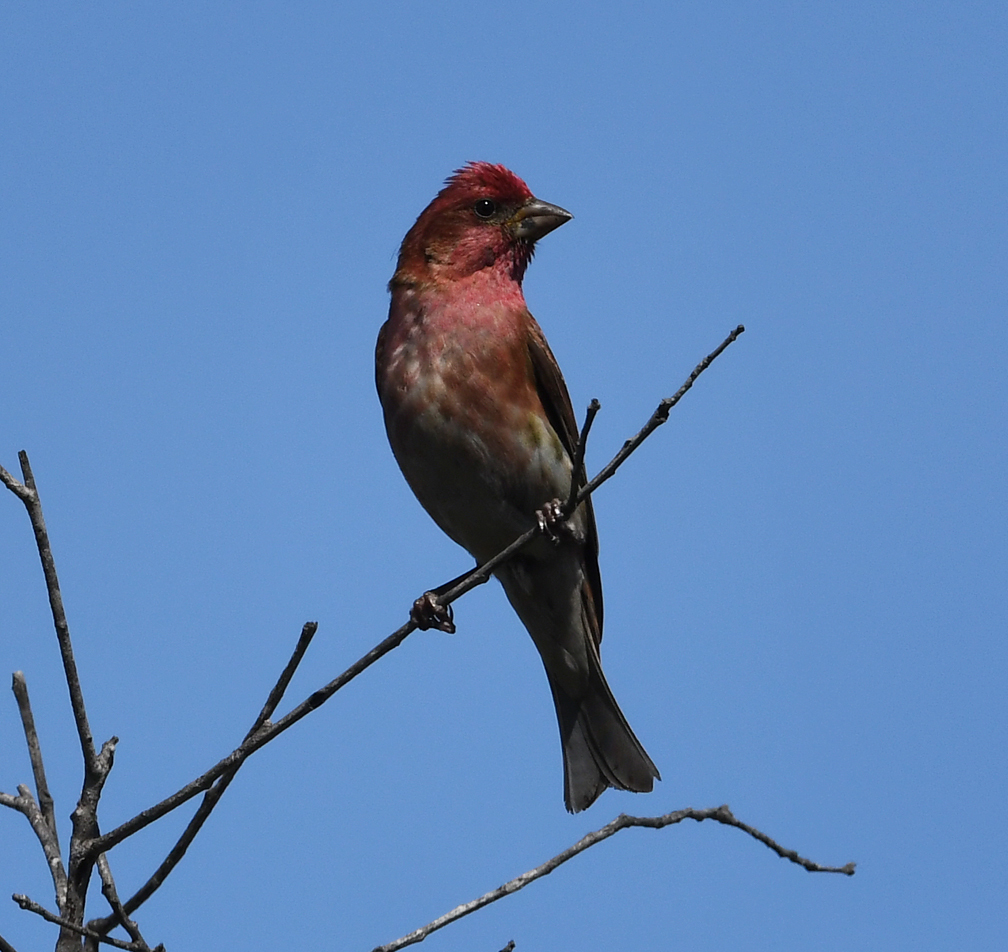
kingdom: Animalia
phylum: Chordata
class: Aves
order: Passeriformes
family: Fringillidae
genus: Haemorhous
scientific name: Haemorhous purpureus
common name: Purple finch
